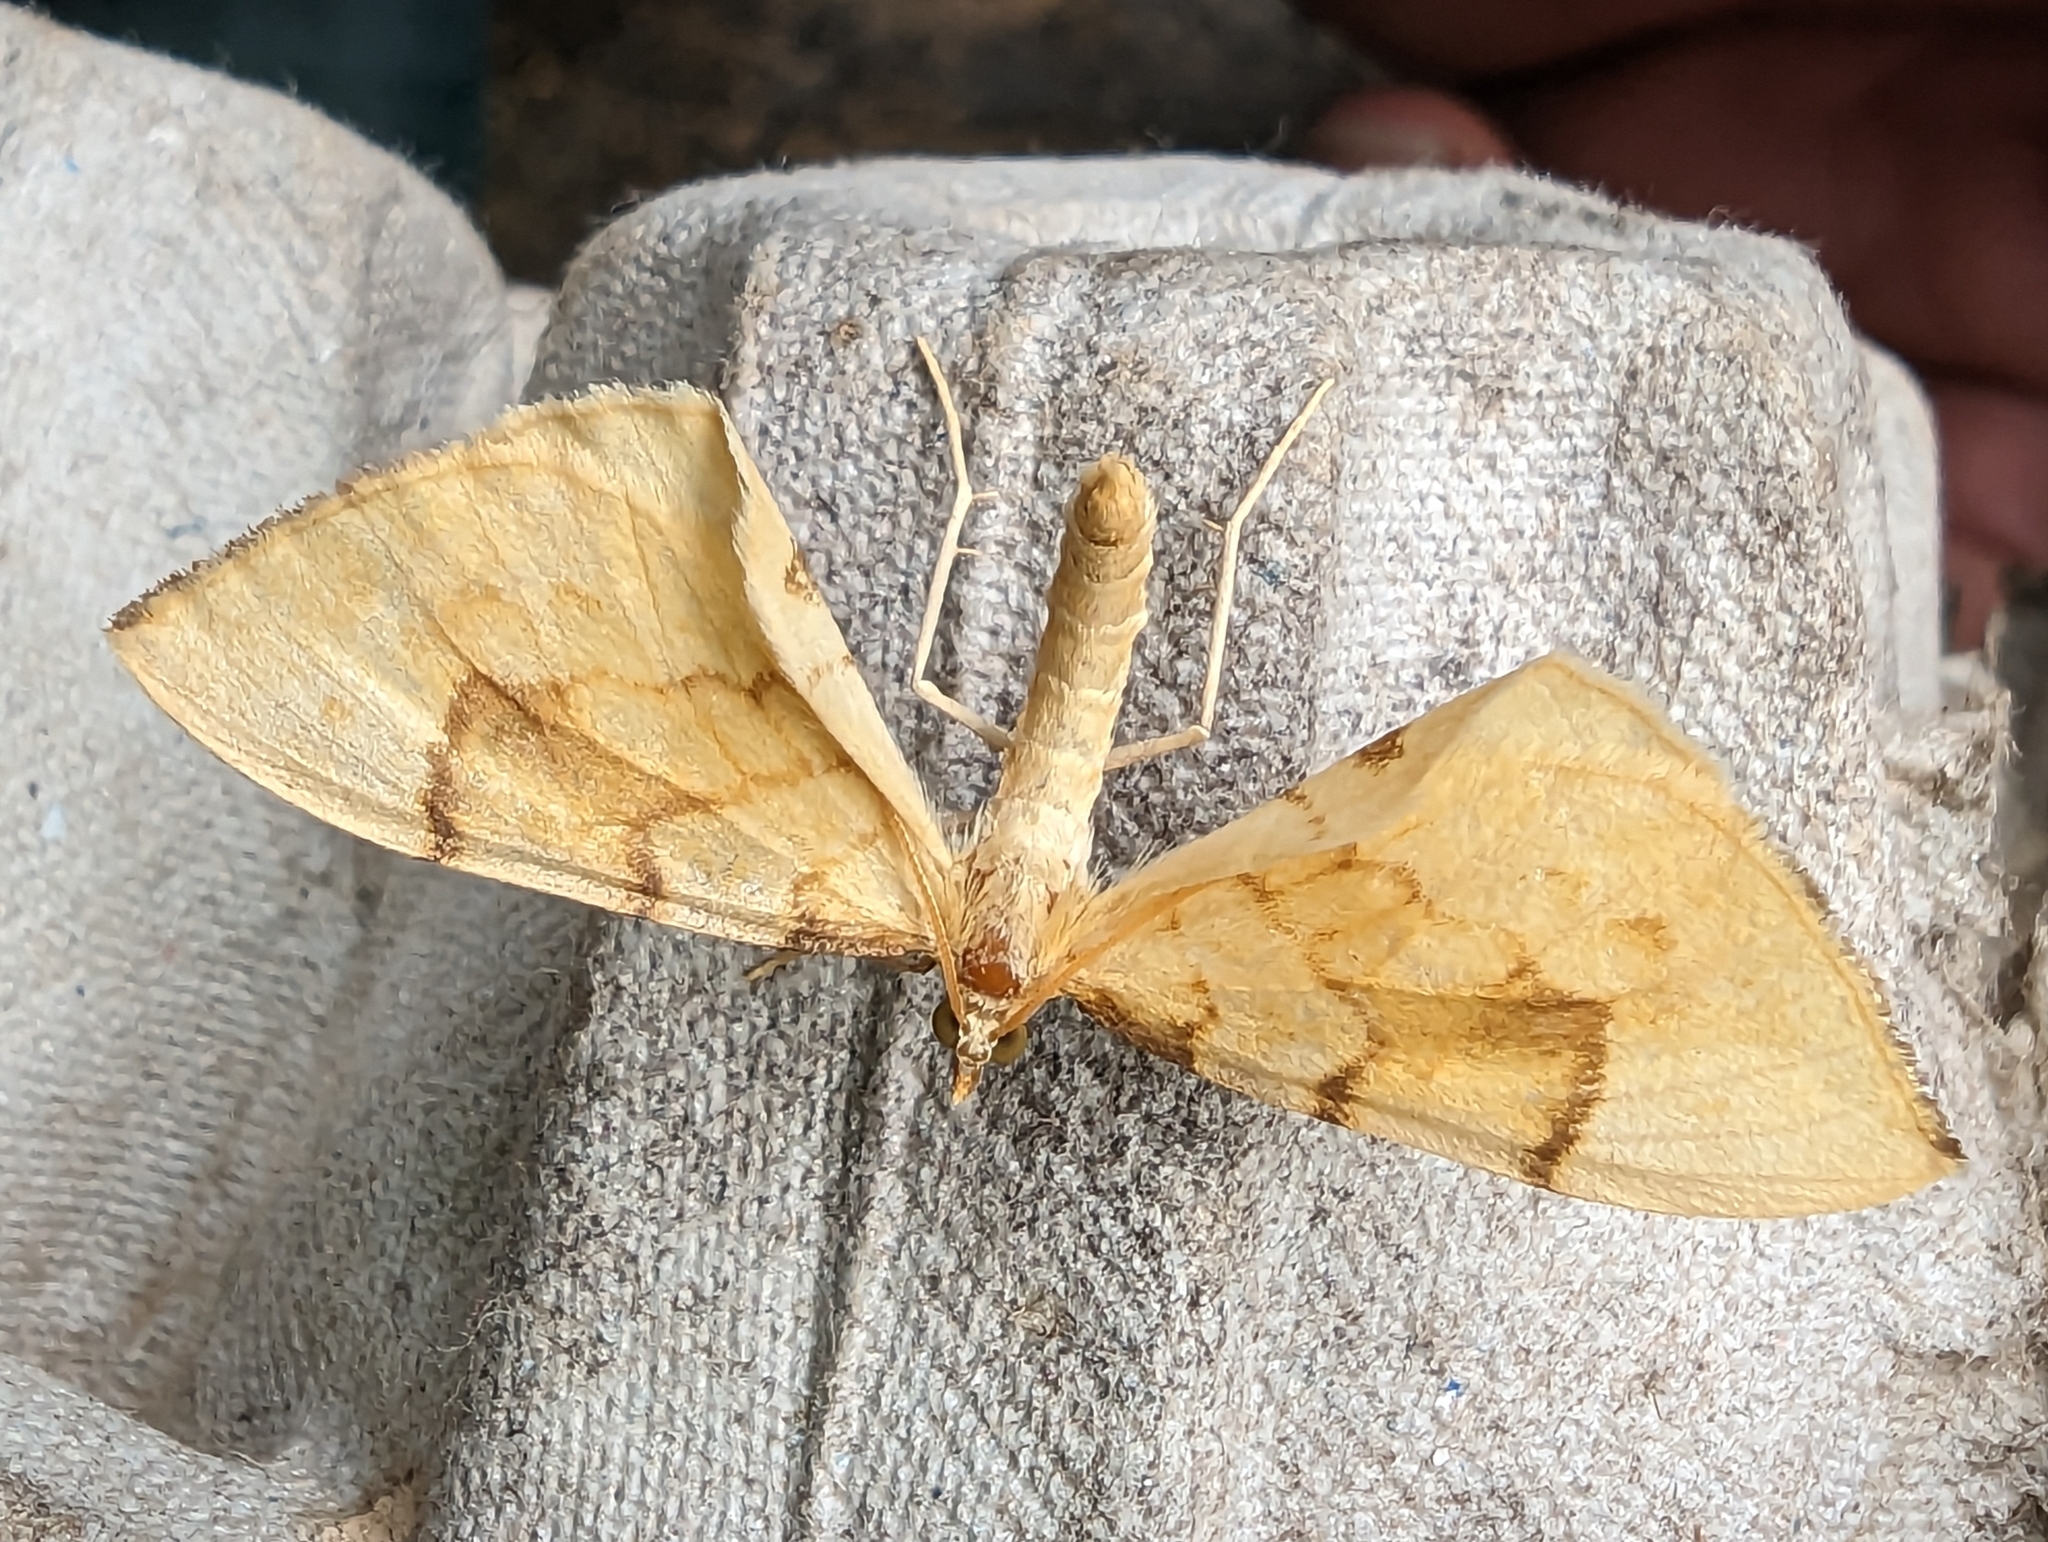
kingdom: Animalia
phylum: Arthropoda
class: Insecta
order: Lepidoptera
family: Geometridae
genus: Eulithis
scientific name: Eulithis pyraliata
